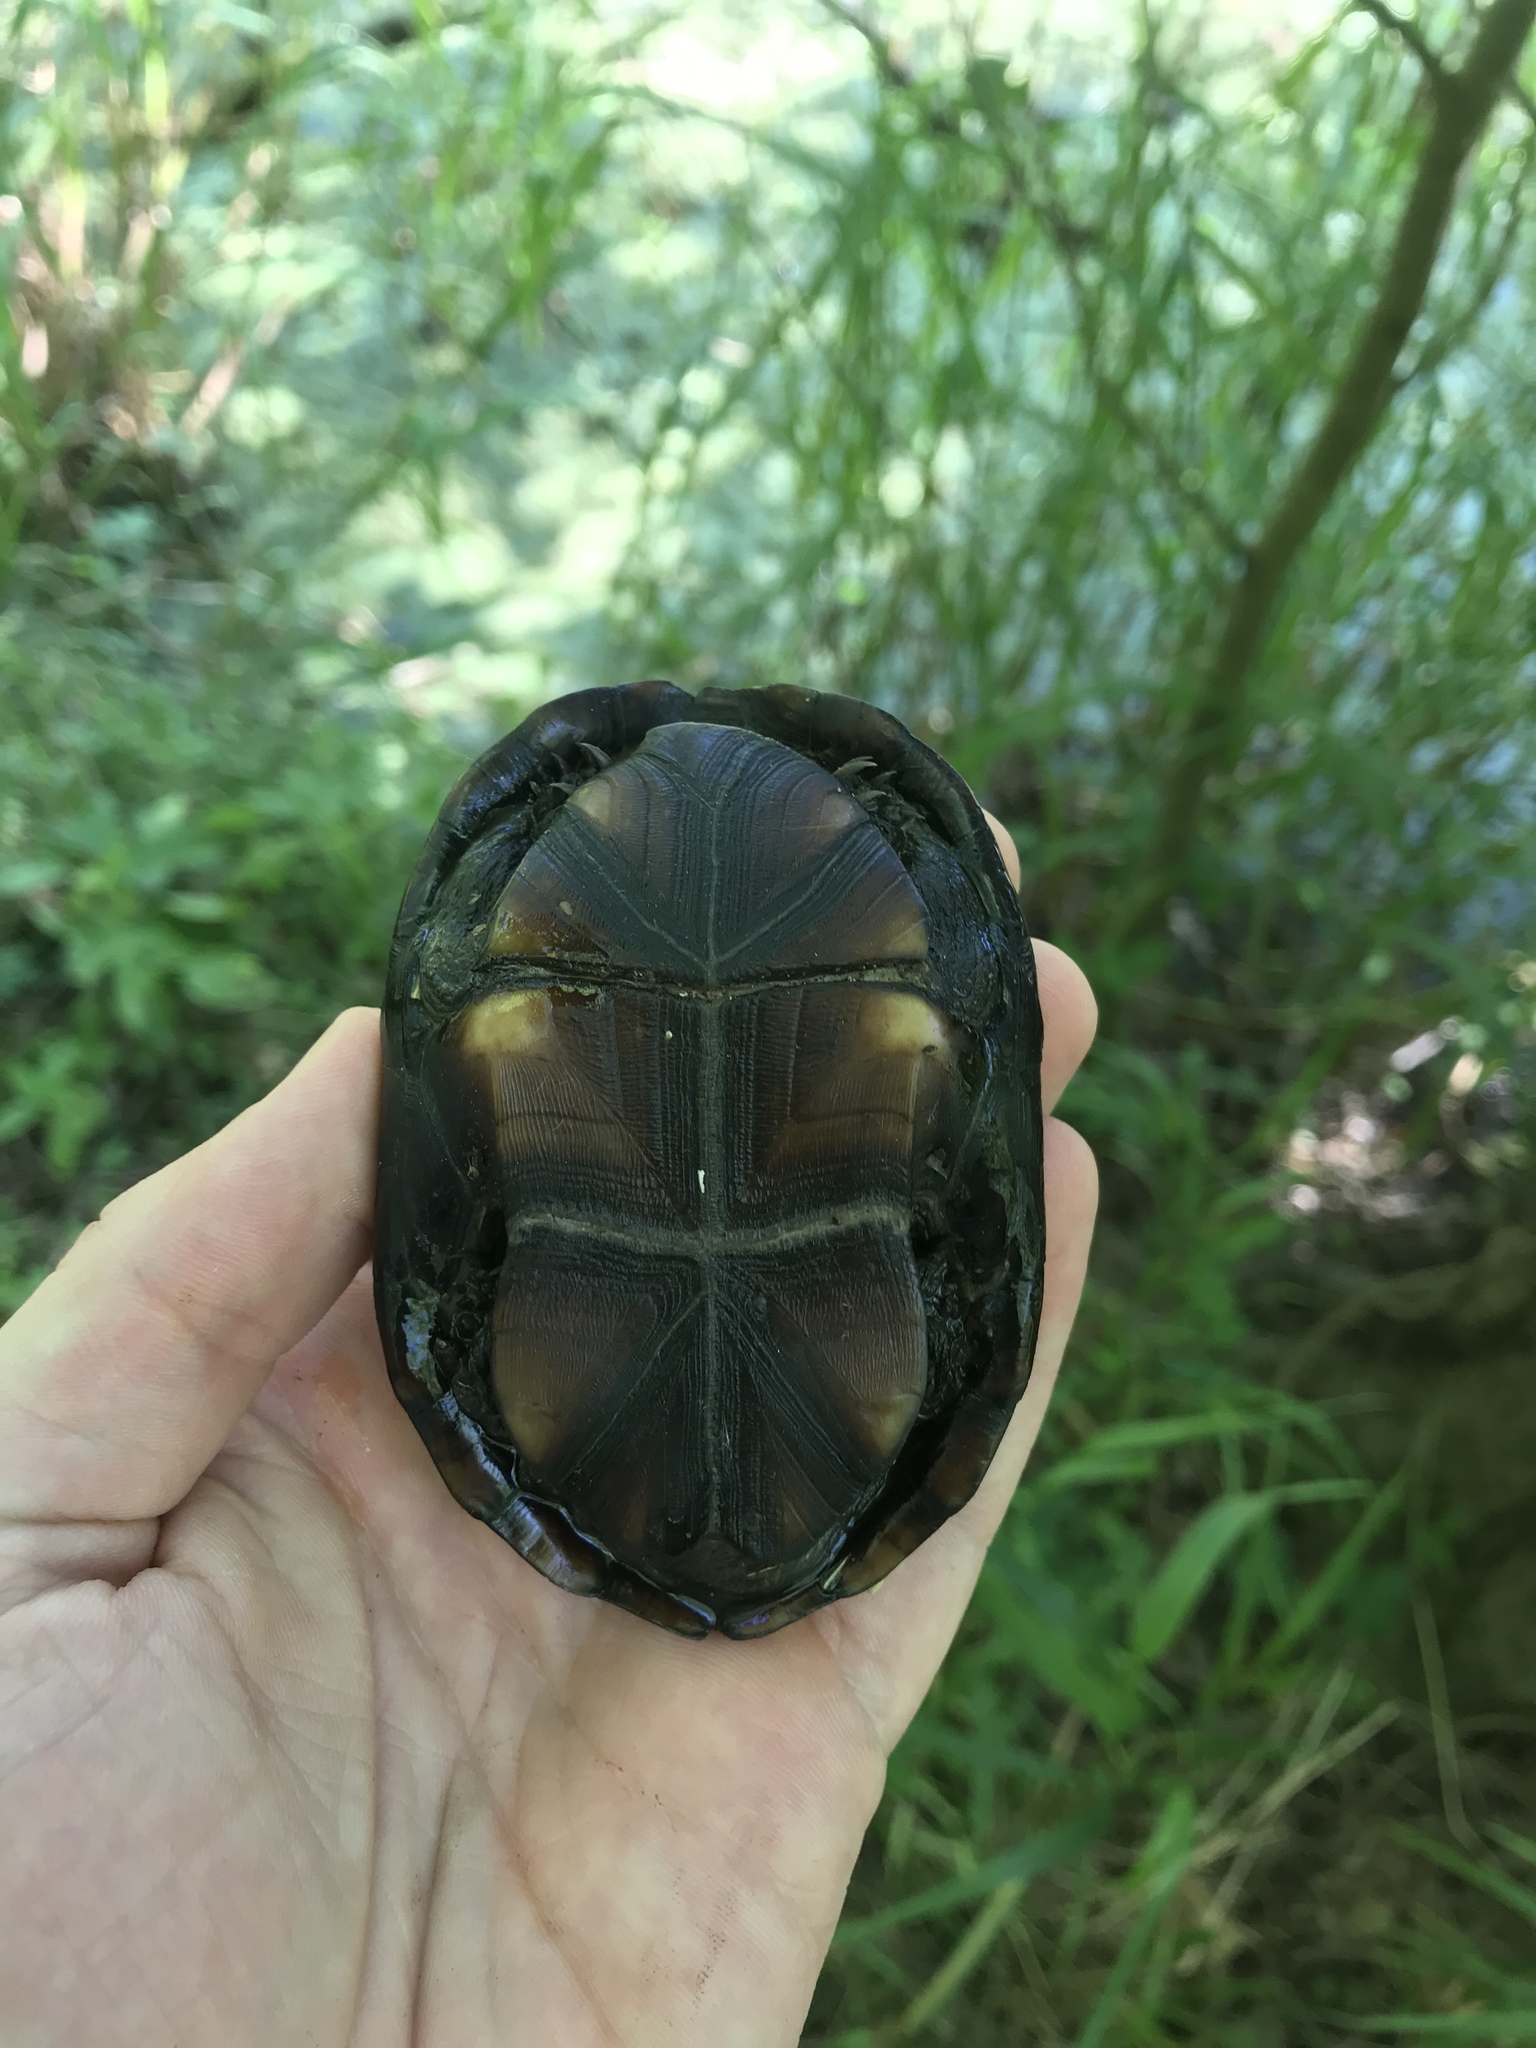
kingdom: Animalia
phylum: Chordata
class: Testudines
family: Kinosternidae
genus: Kinosternon
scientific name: Kinosternon subrubrum
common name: Eastern mud turtle
